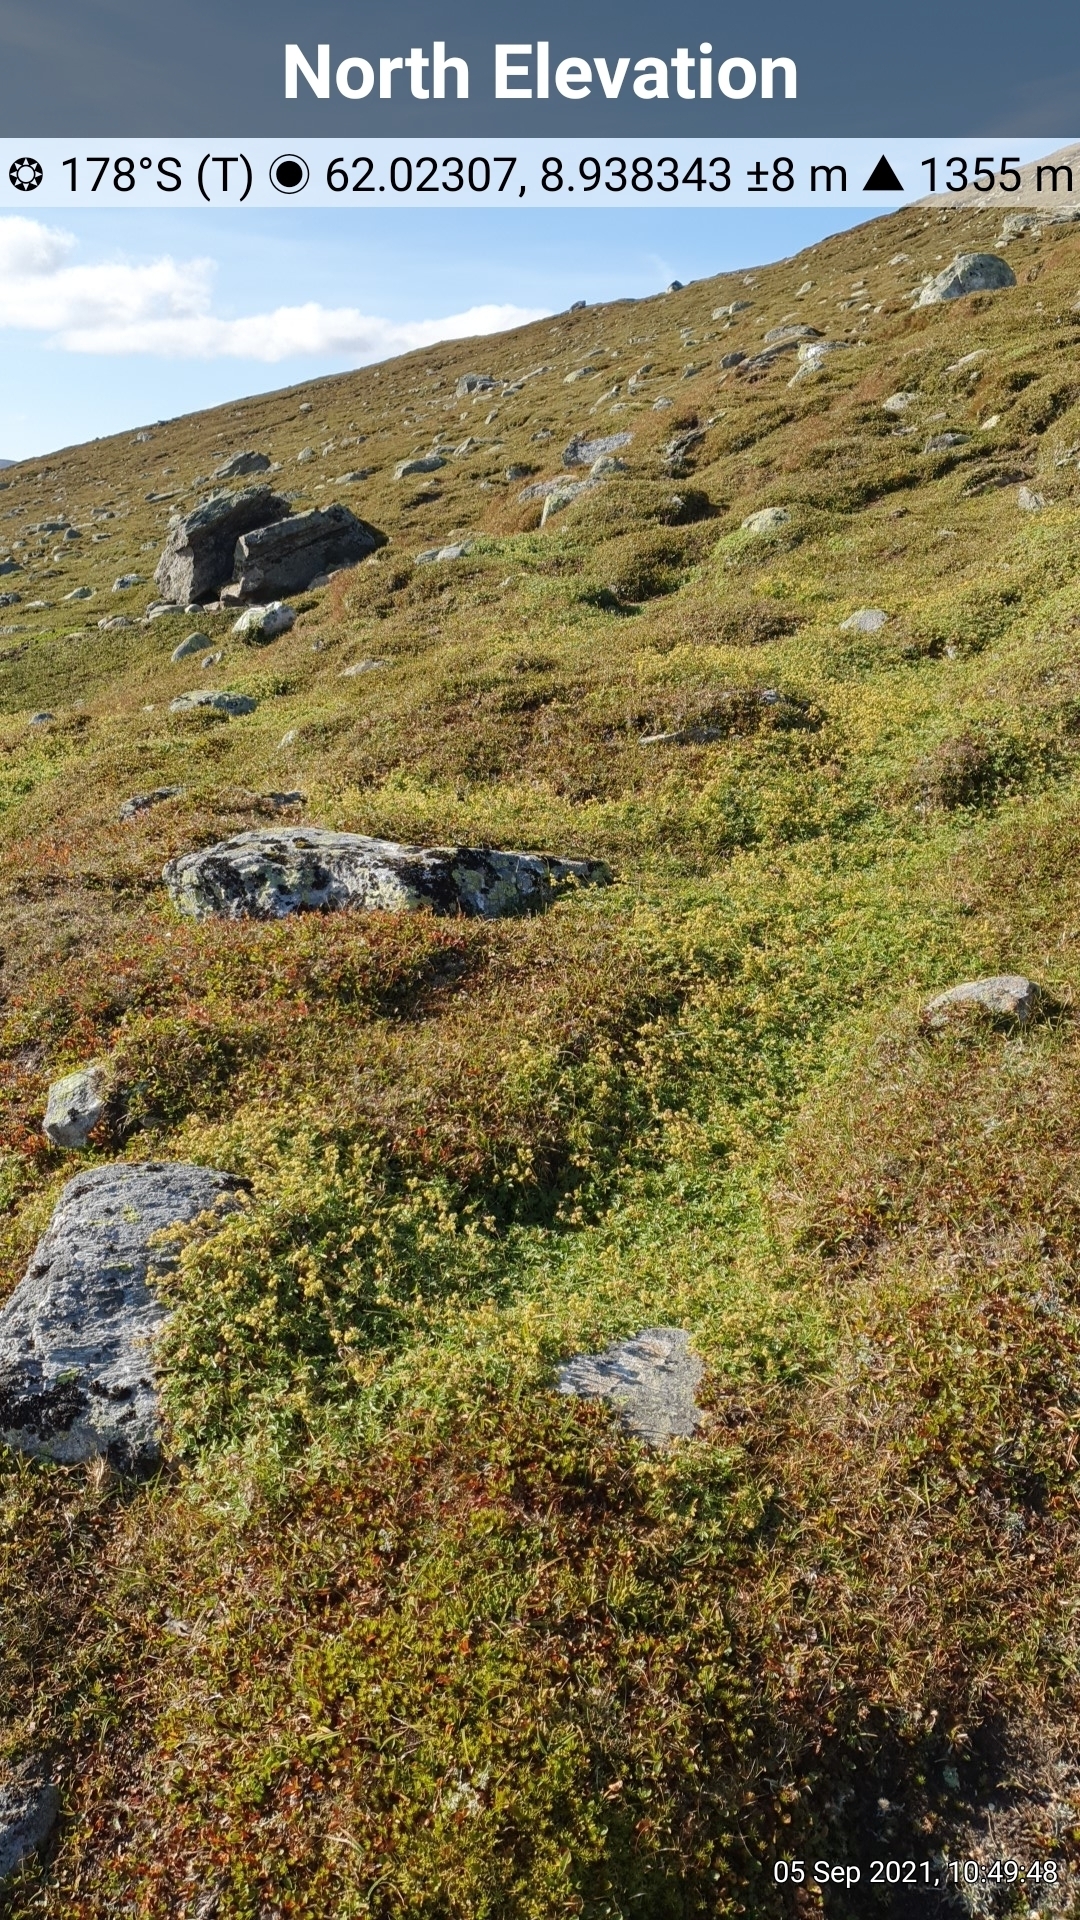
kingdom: Plantae
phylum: Tracheophyta
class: Magnoliopsida
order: Rosales
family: Rosaceae
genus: Alchemilla
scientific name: Alchemilla alpina
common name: Alpine lady's-mantle
